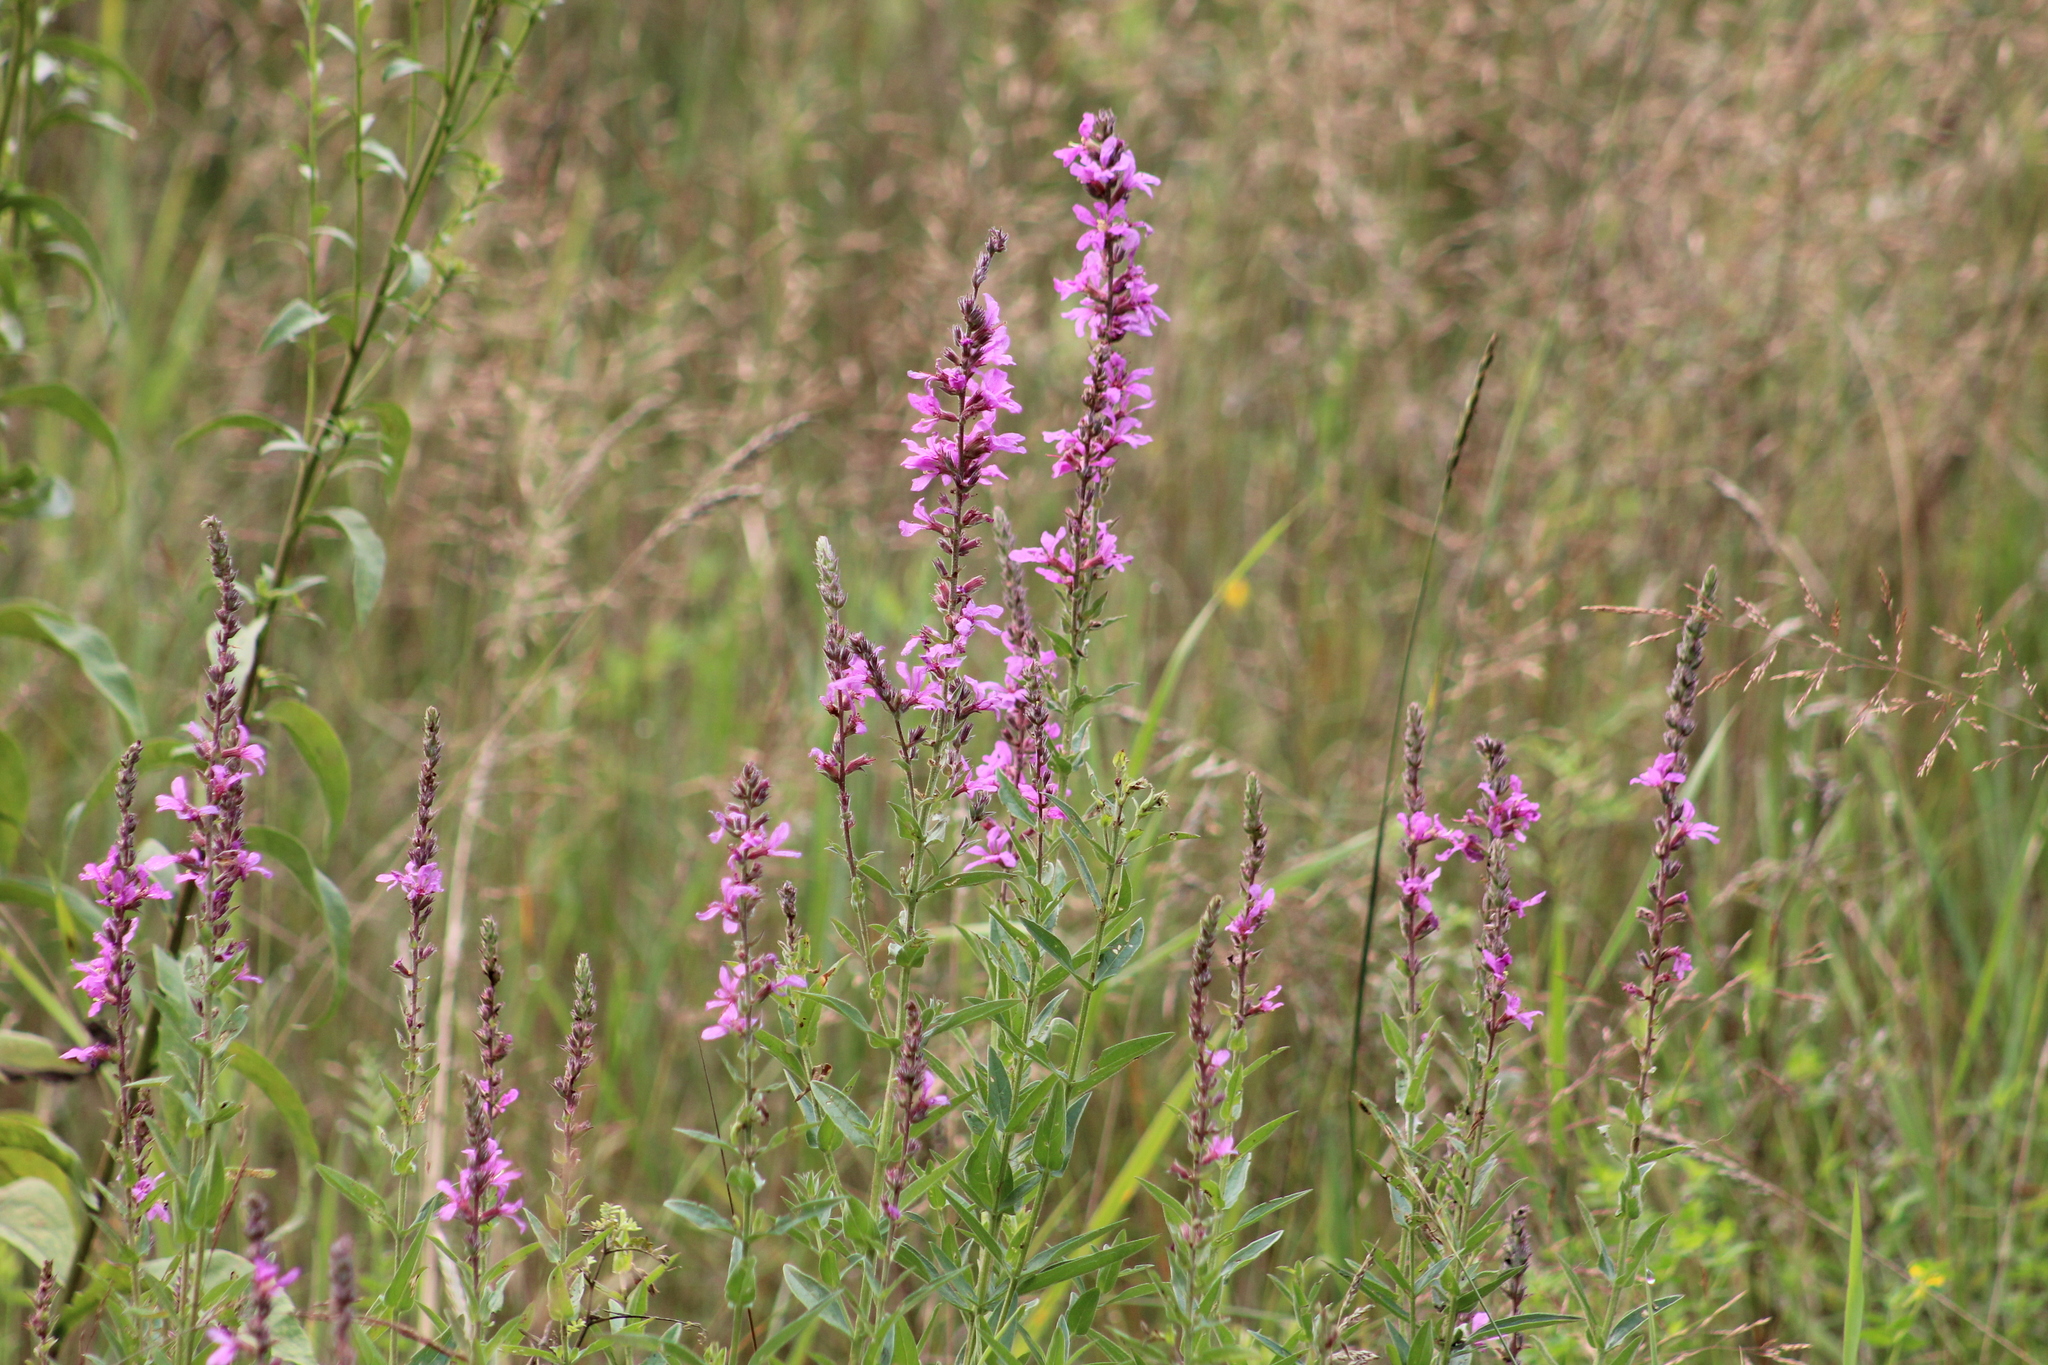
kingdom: Plantae
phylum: Tracheophyta
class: Magnoliopsida
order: Myrtales
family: Lythraceae
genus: Lythrum
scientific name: Lythrum salicaria
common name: Purple loosestrife
